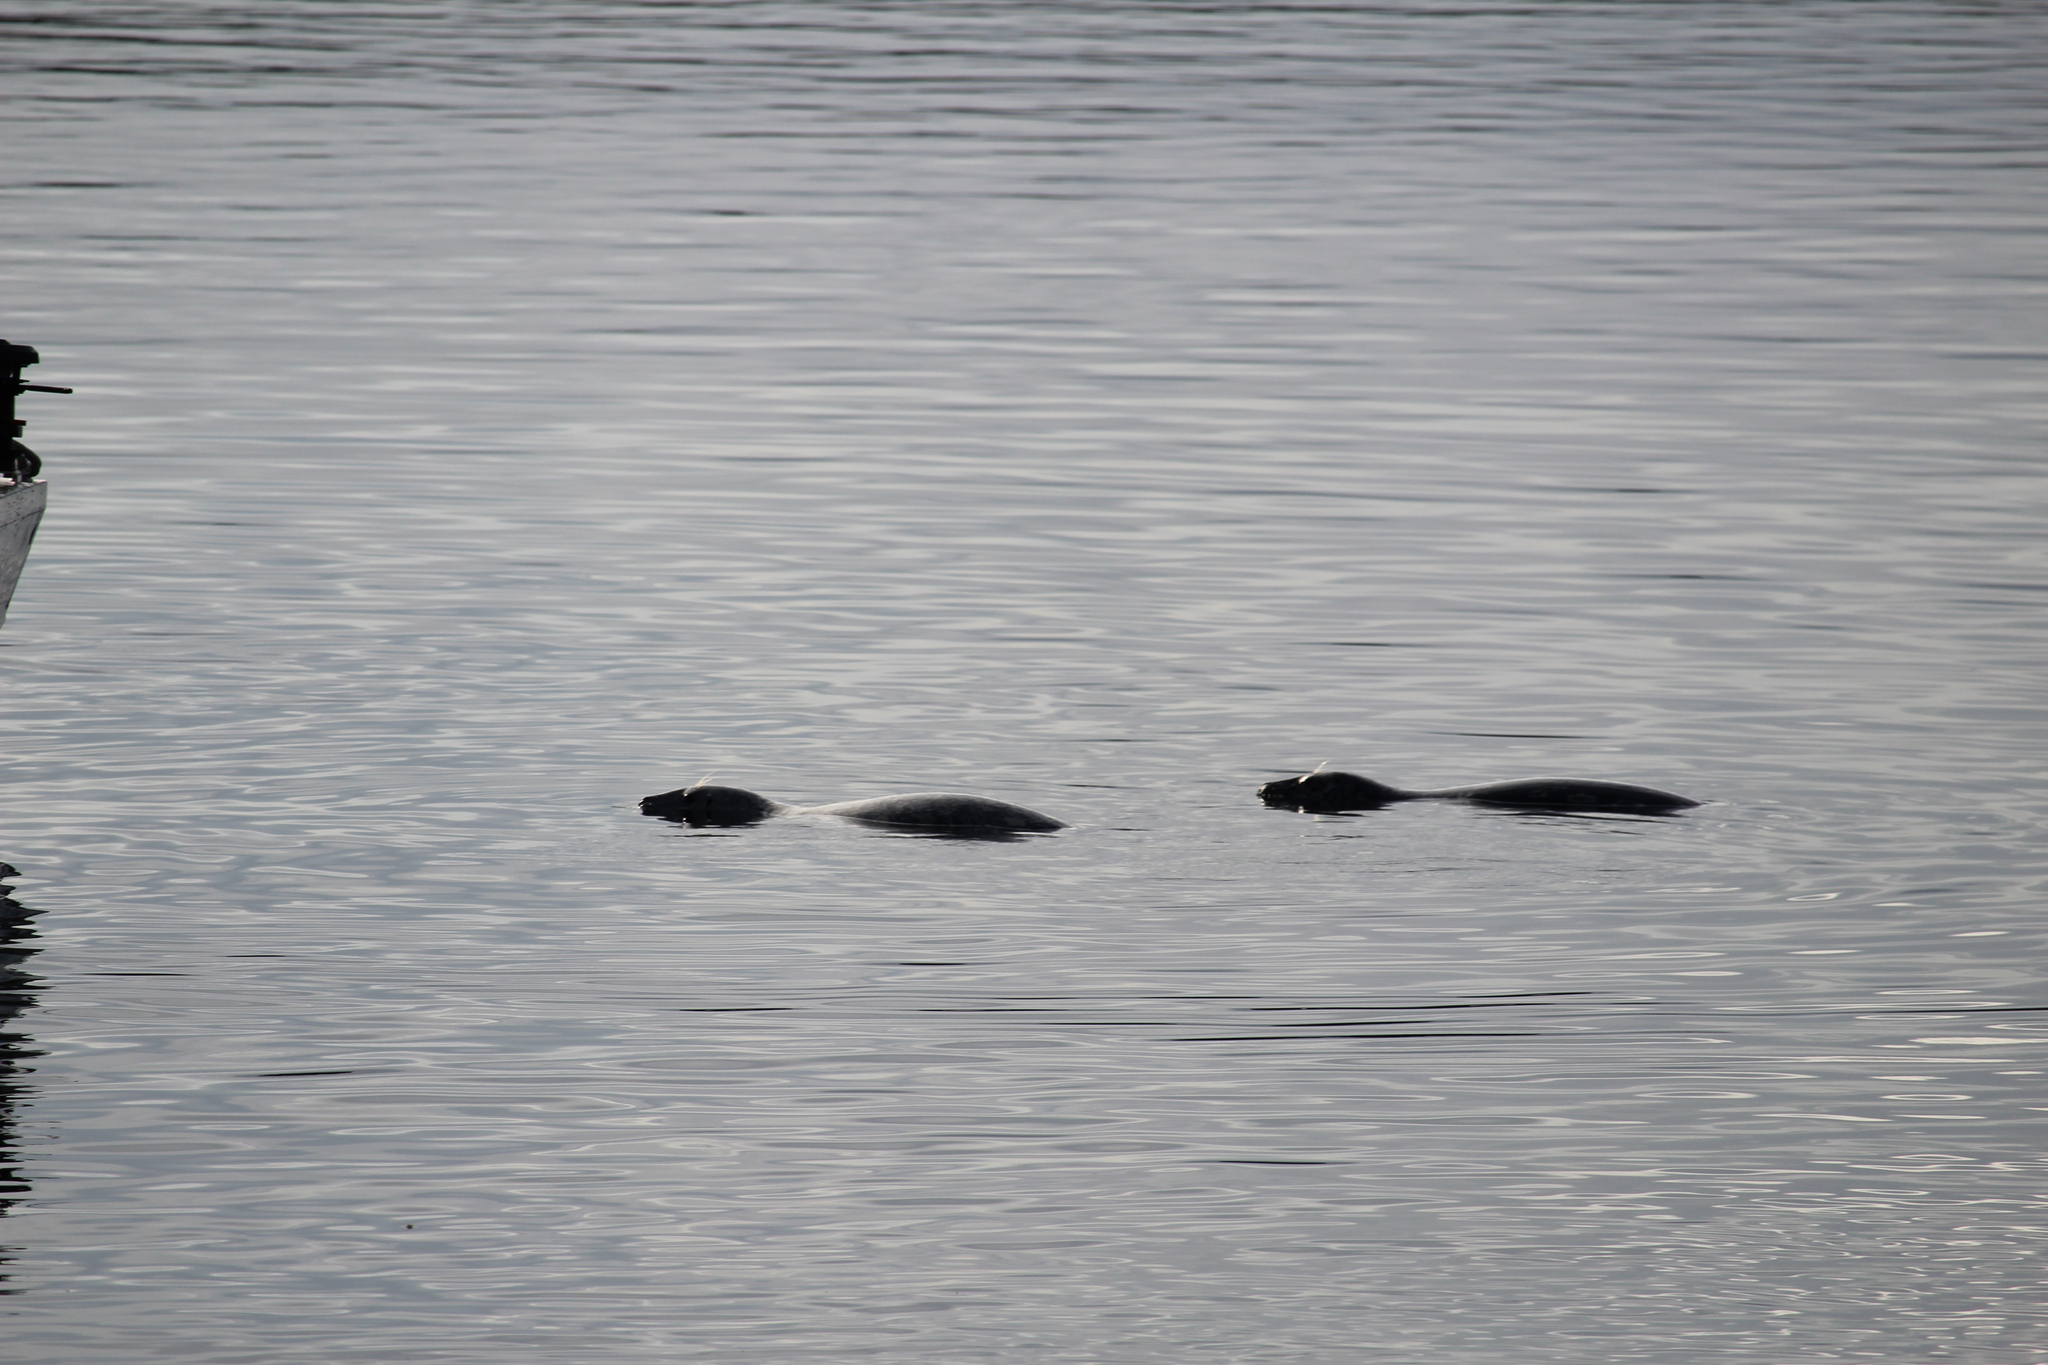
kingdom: Animalia
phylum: Chordata
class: Mammalia
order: Carnivora
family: Phocidae
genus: Phoca
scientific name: Phoca vitulina
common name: Harbor seal
